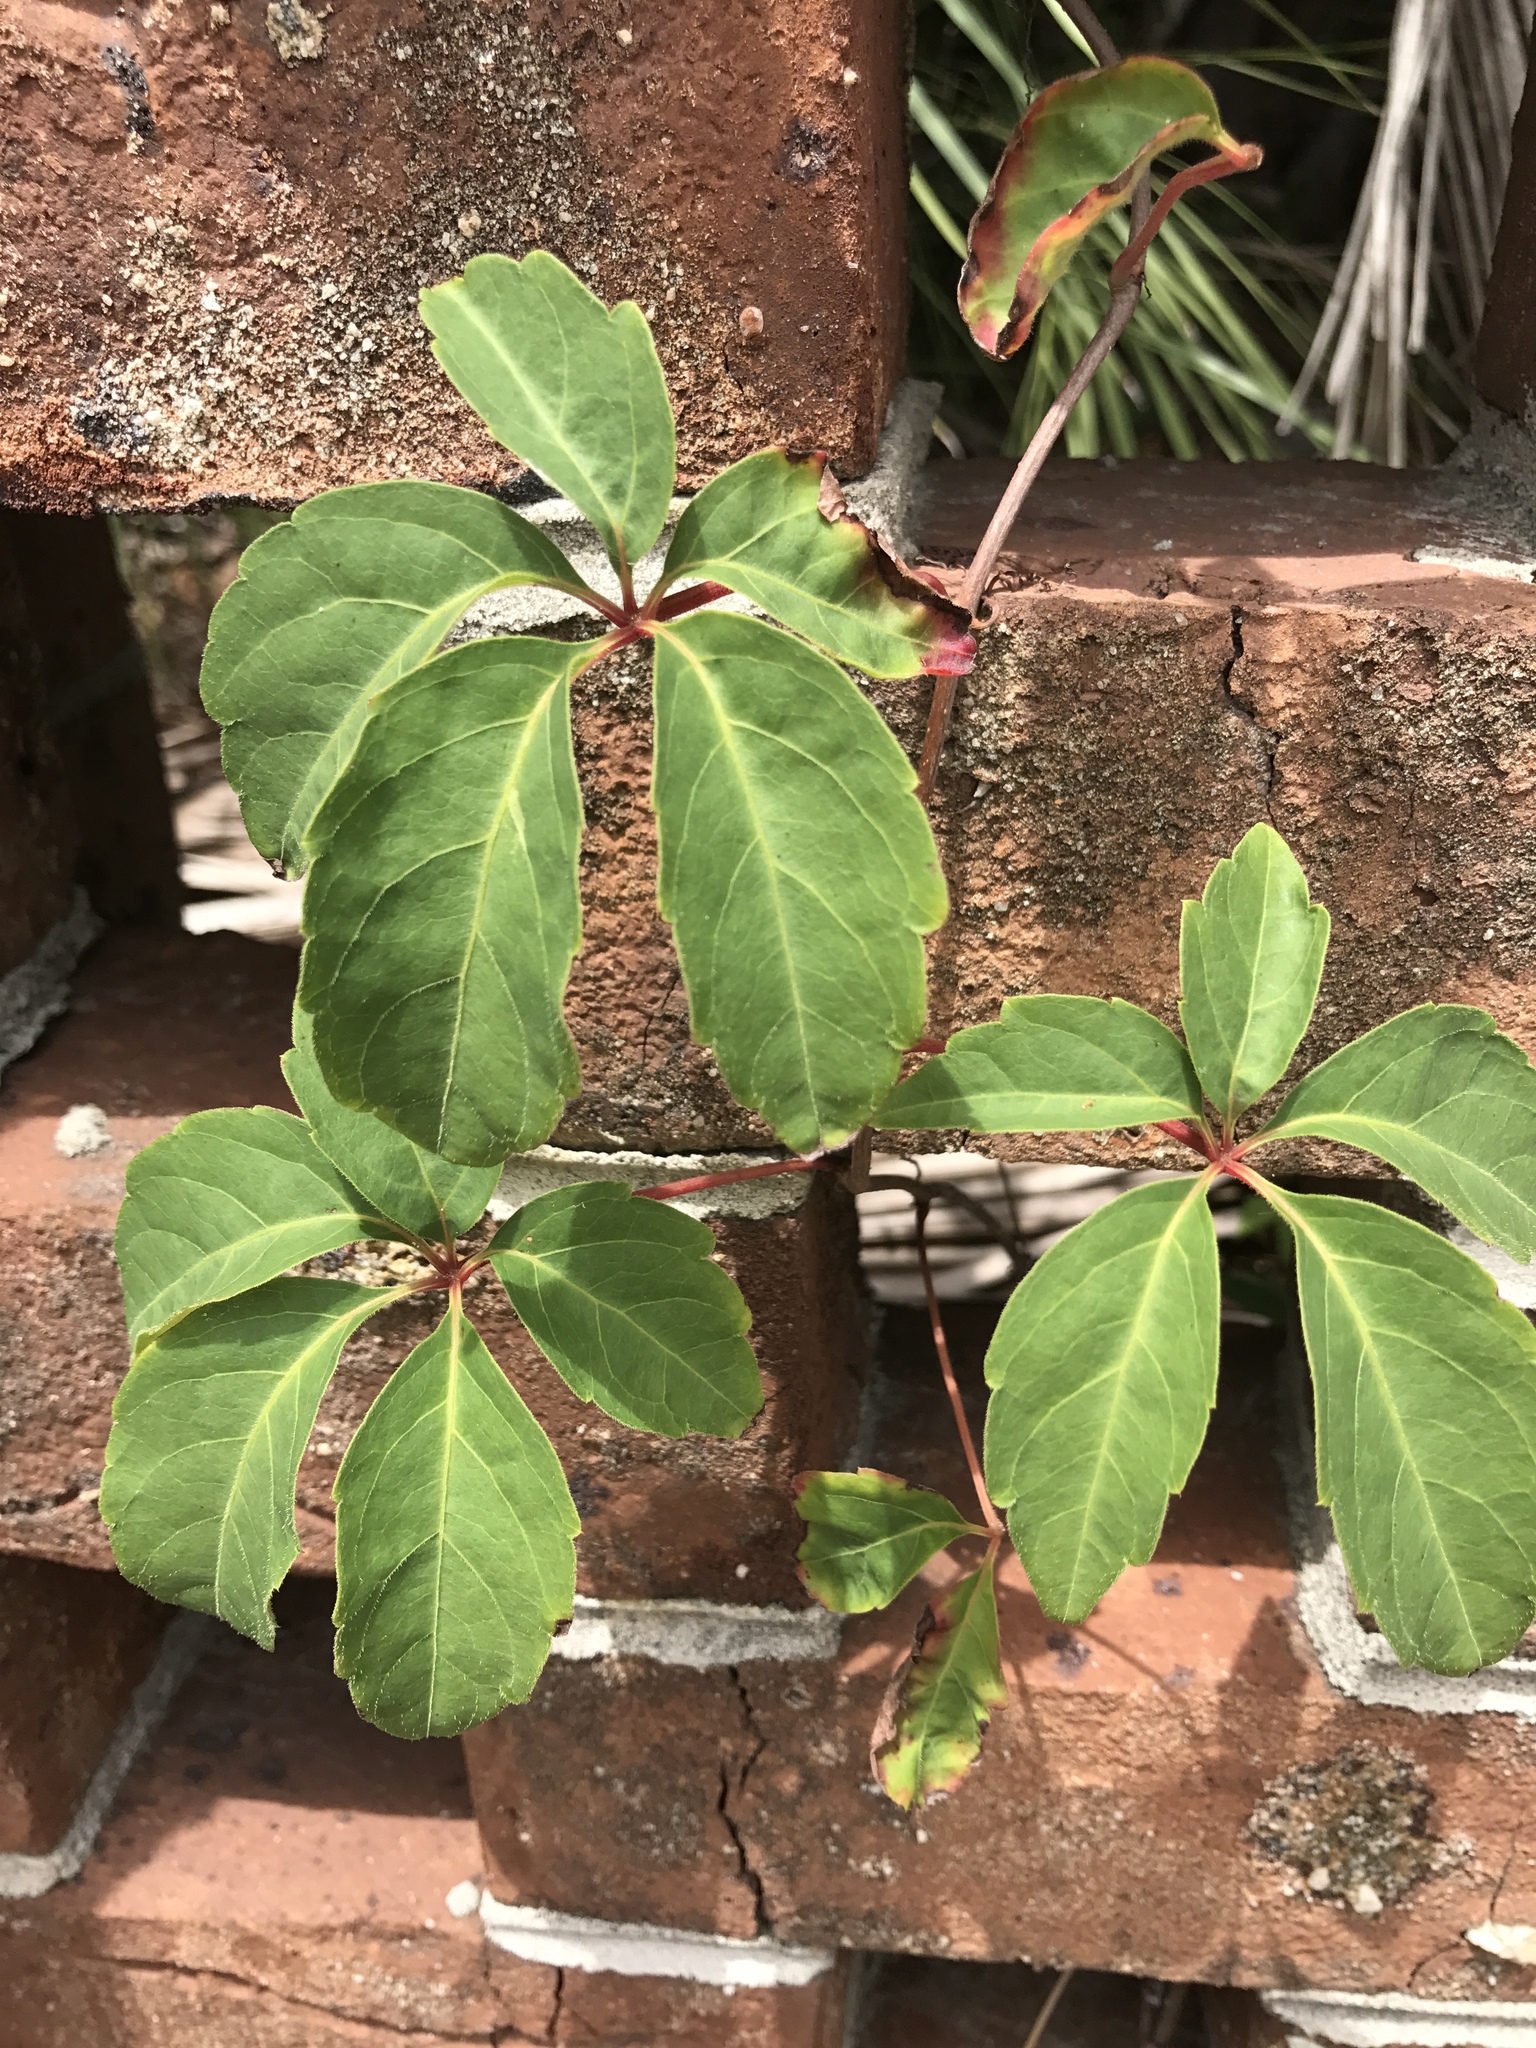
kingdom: Plantae
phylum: Tracheophyta
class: Magnoliopsida
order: Vitales
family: Vitaceae
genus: Parthenocissus
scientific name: Parthenocissus quinquefolia
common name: Virginia-creeper
